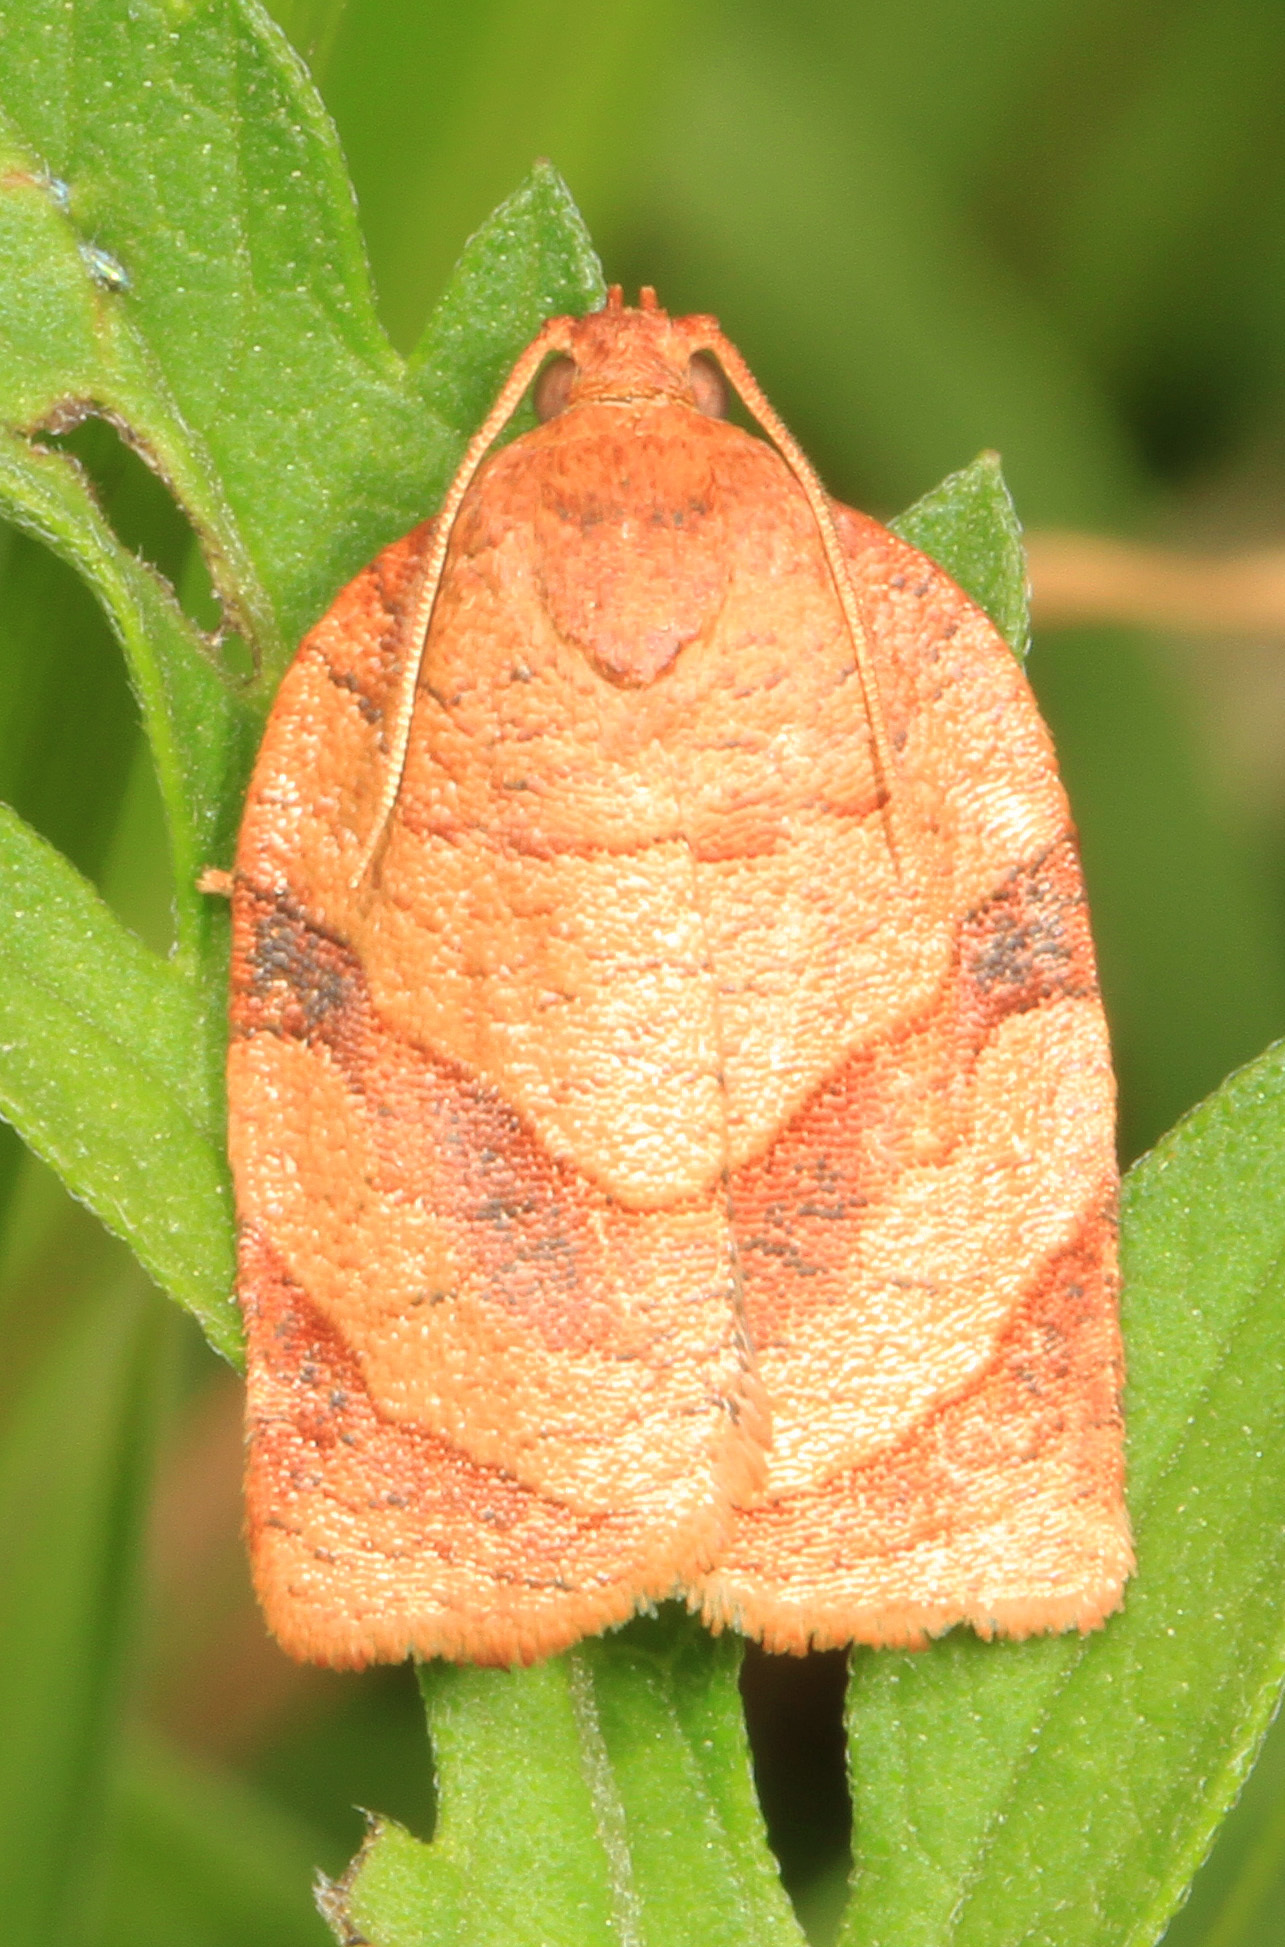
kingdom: Animalia
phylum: Arthropoda
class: Insecta
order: Lepidoptera
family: Tortricidae
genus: Choristoneura
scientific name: Choristoneura parallela
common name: Parallel-banded leafroller moth
